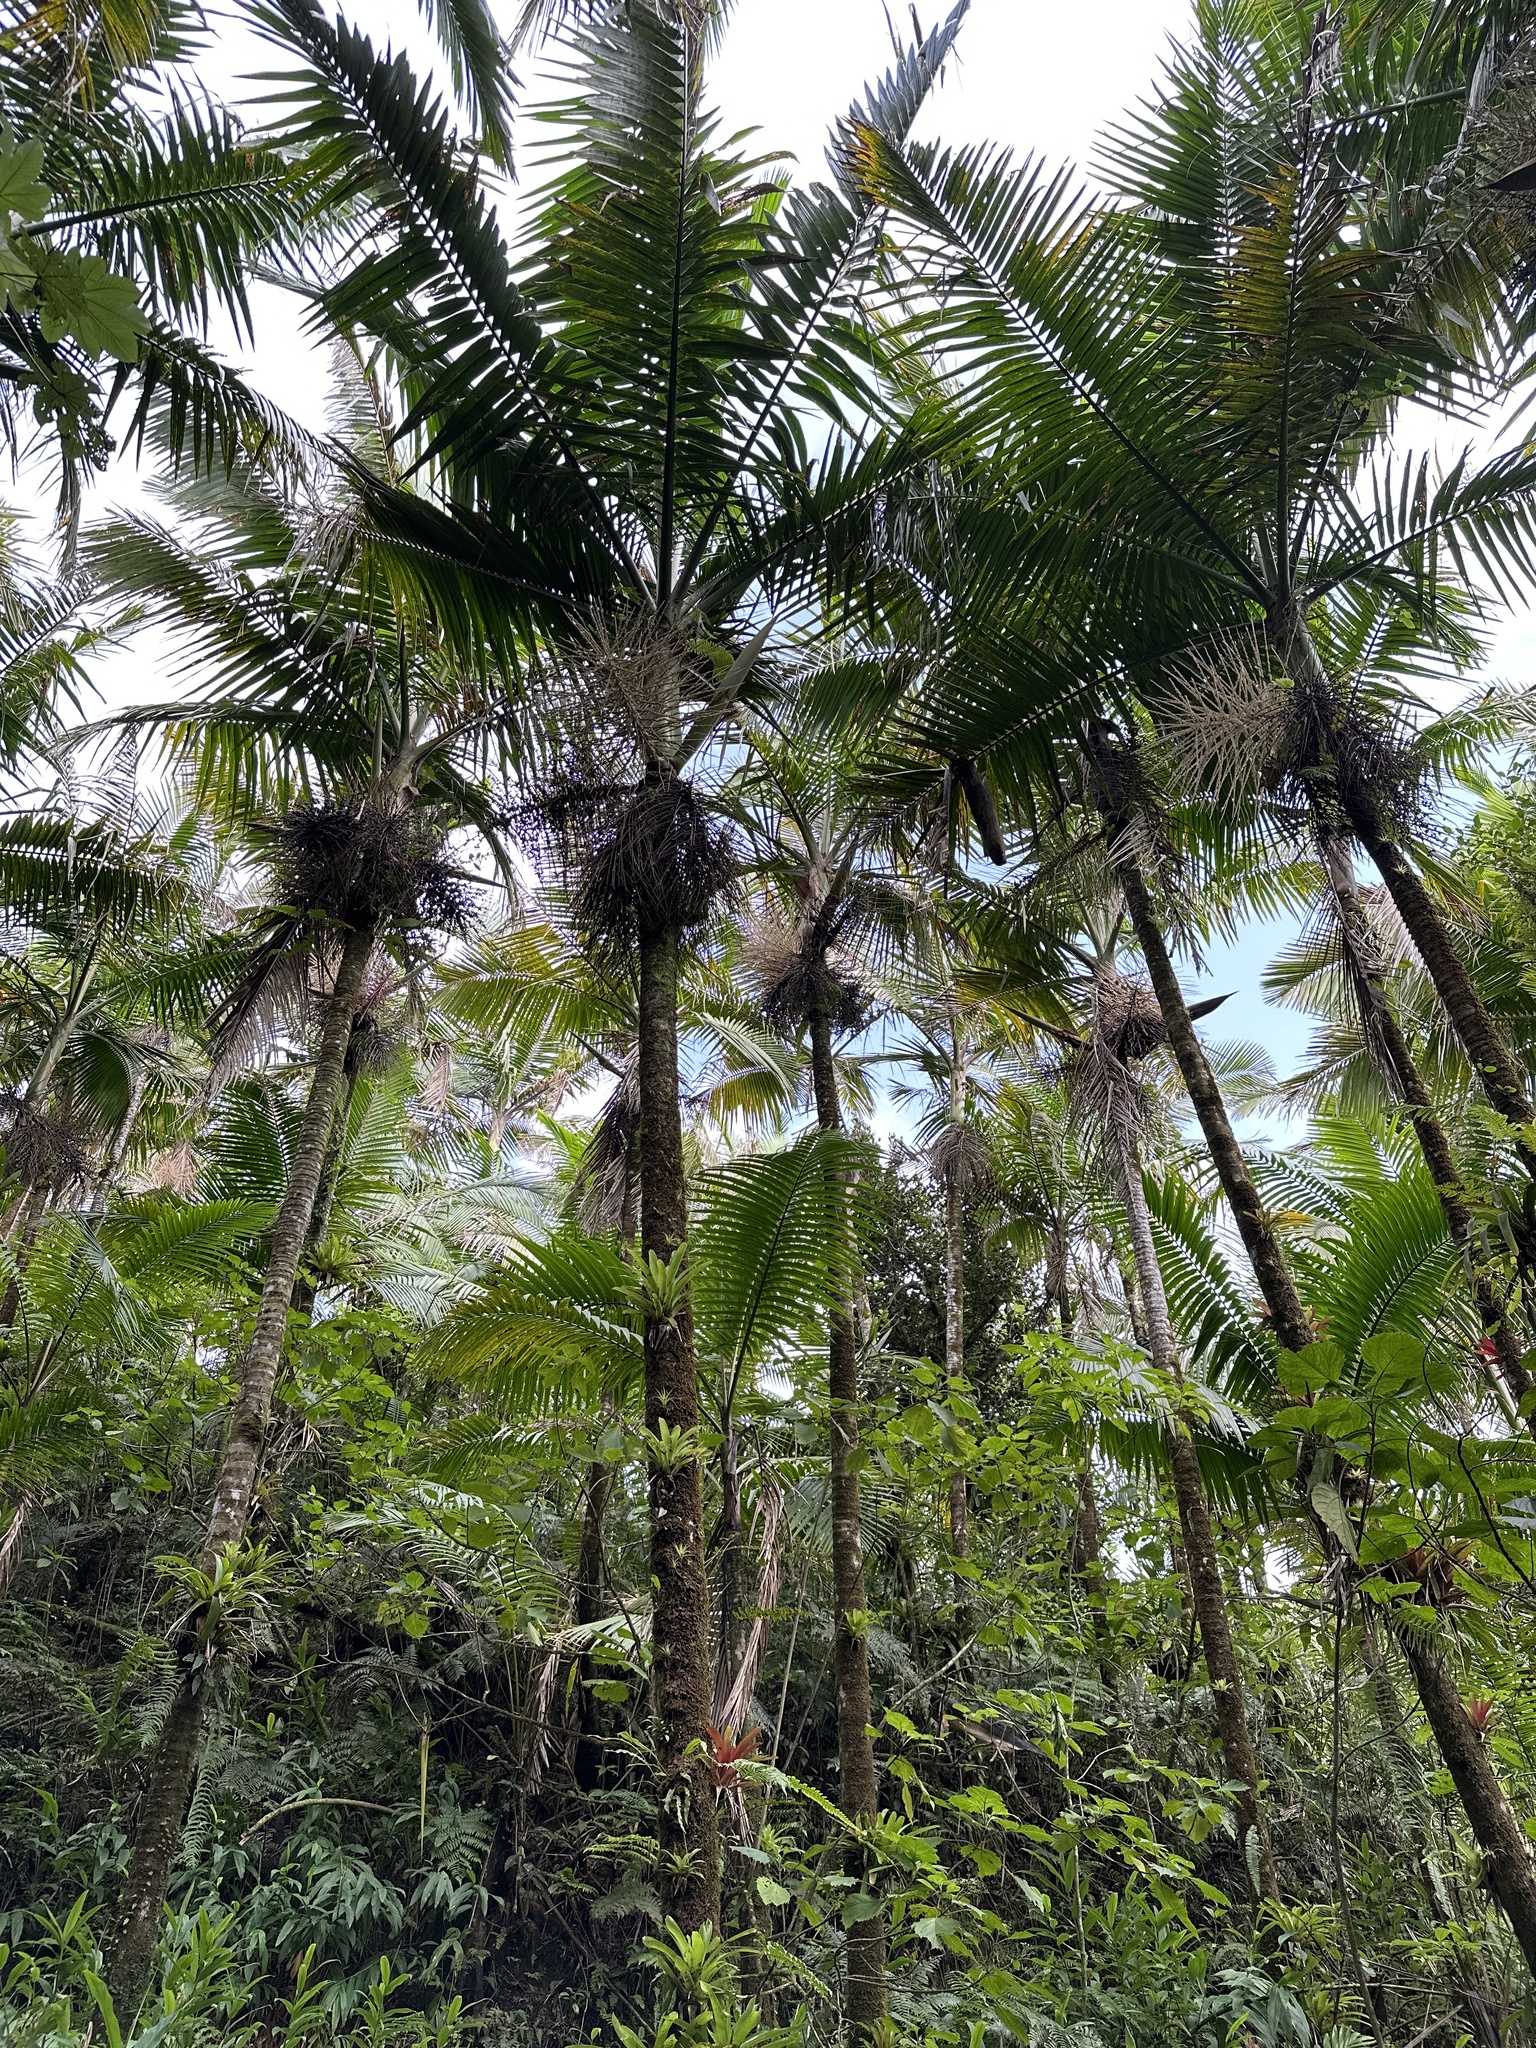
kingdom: Plantae
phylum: Tracheophyta
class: Liliopsida
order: Arecales
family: Arecaceae
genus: Prestoea
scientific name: Prestoea acuminata
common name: Sierran palm
